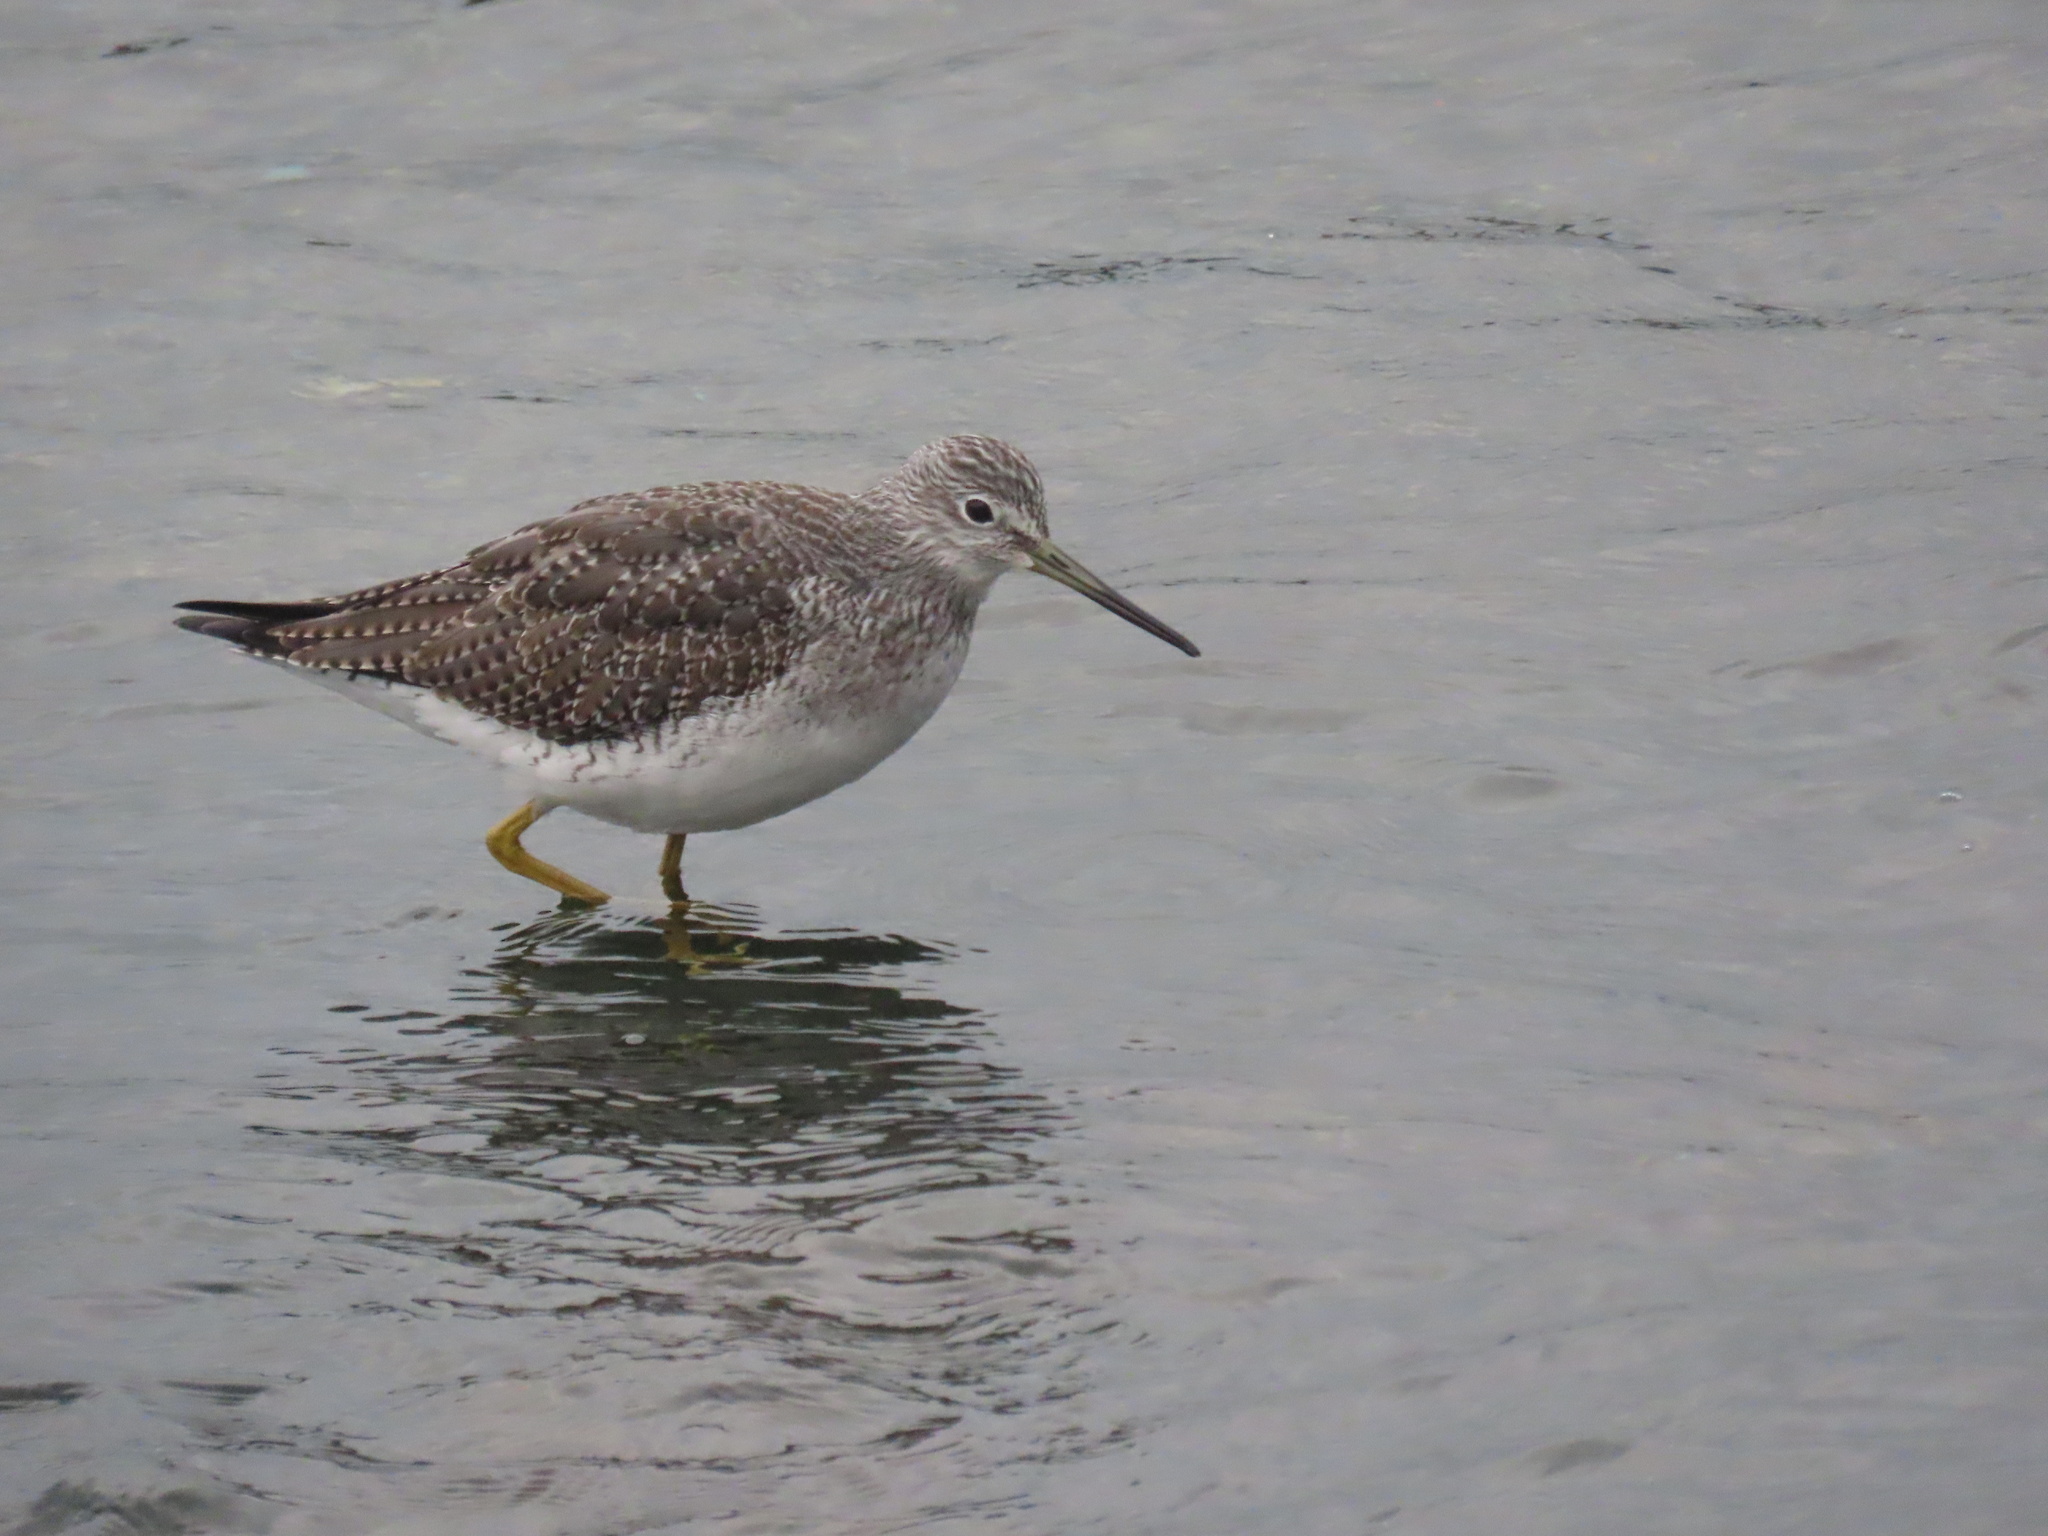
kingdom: Animalia
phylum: Chordata
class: Aves
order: Charadriiformes
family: Scolopacidae
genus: Tringa
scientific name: Tringa melanoleuca
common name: Greater yellowlegs
